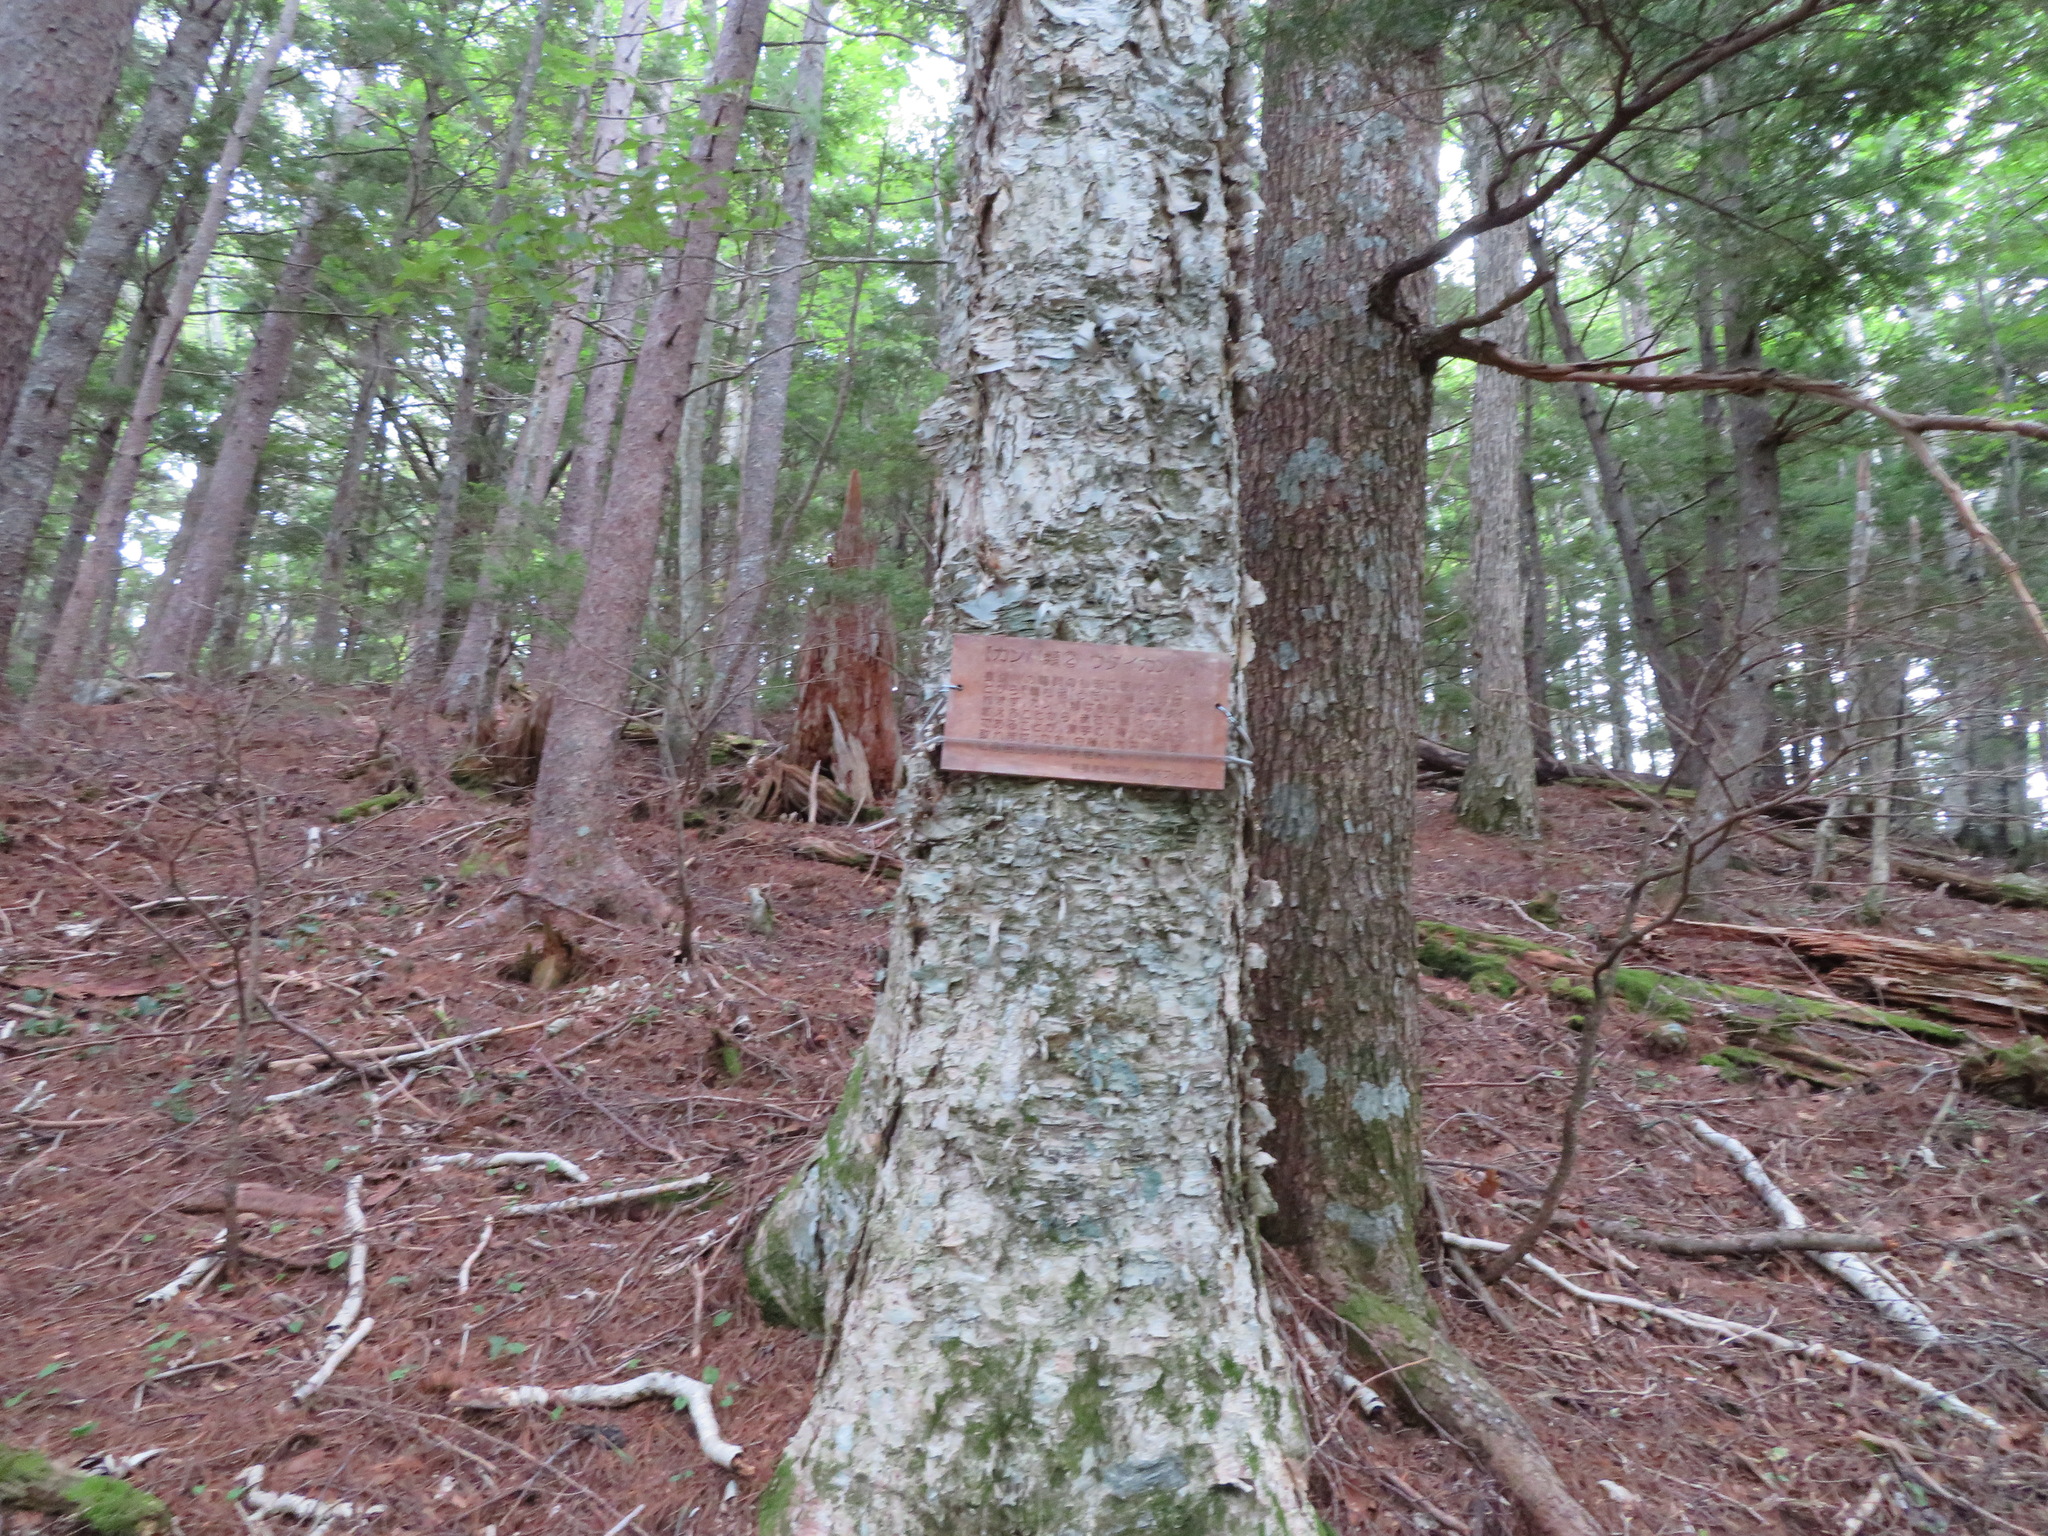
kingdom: Plantae
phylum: Tracheophyta
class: Magnoliopsida
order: Fagales
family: Betulaceae
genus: Betula
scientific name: Betula maximowicziana
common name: Monarch birch
